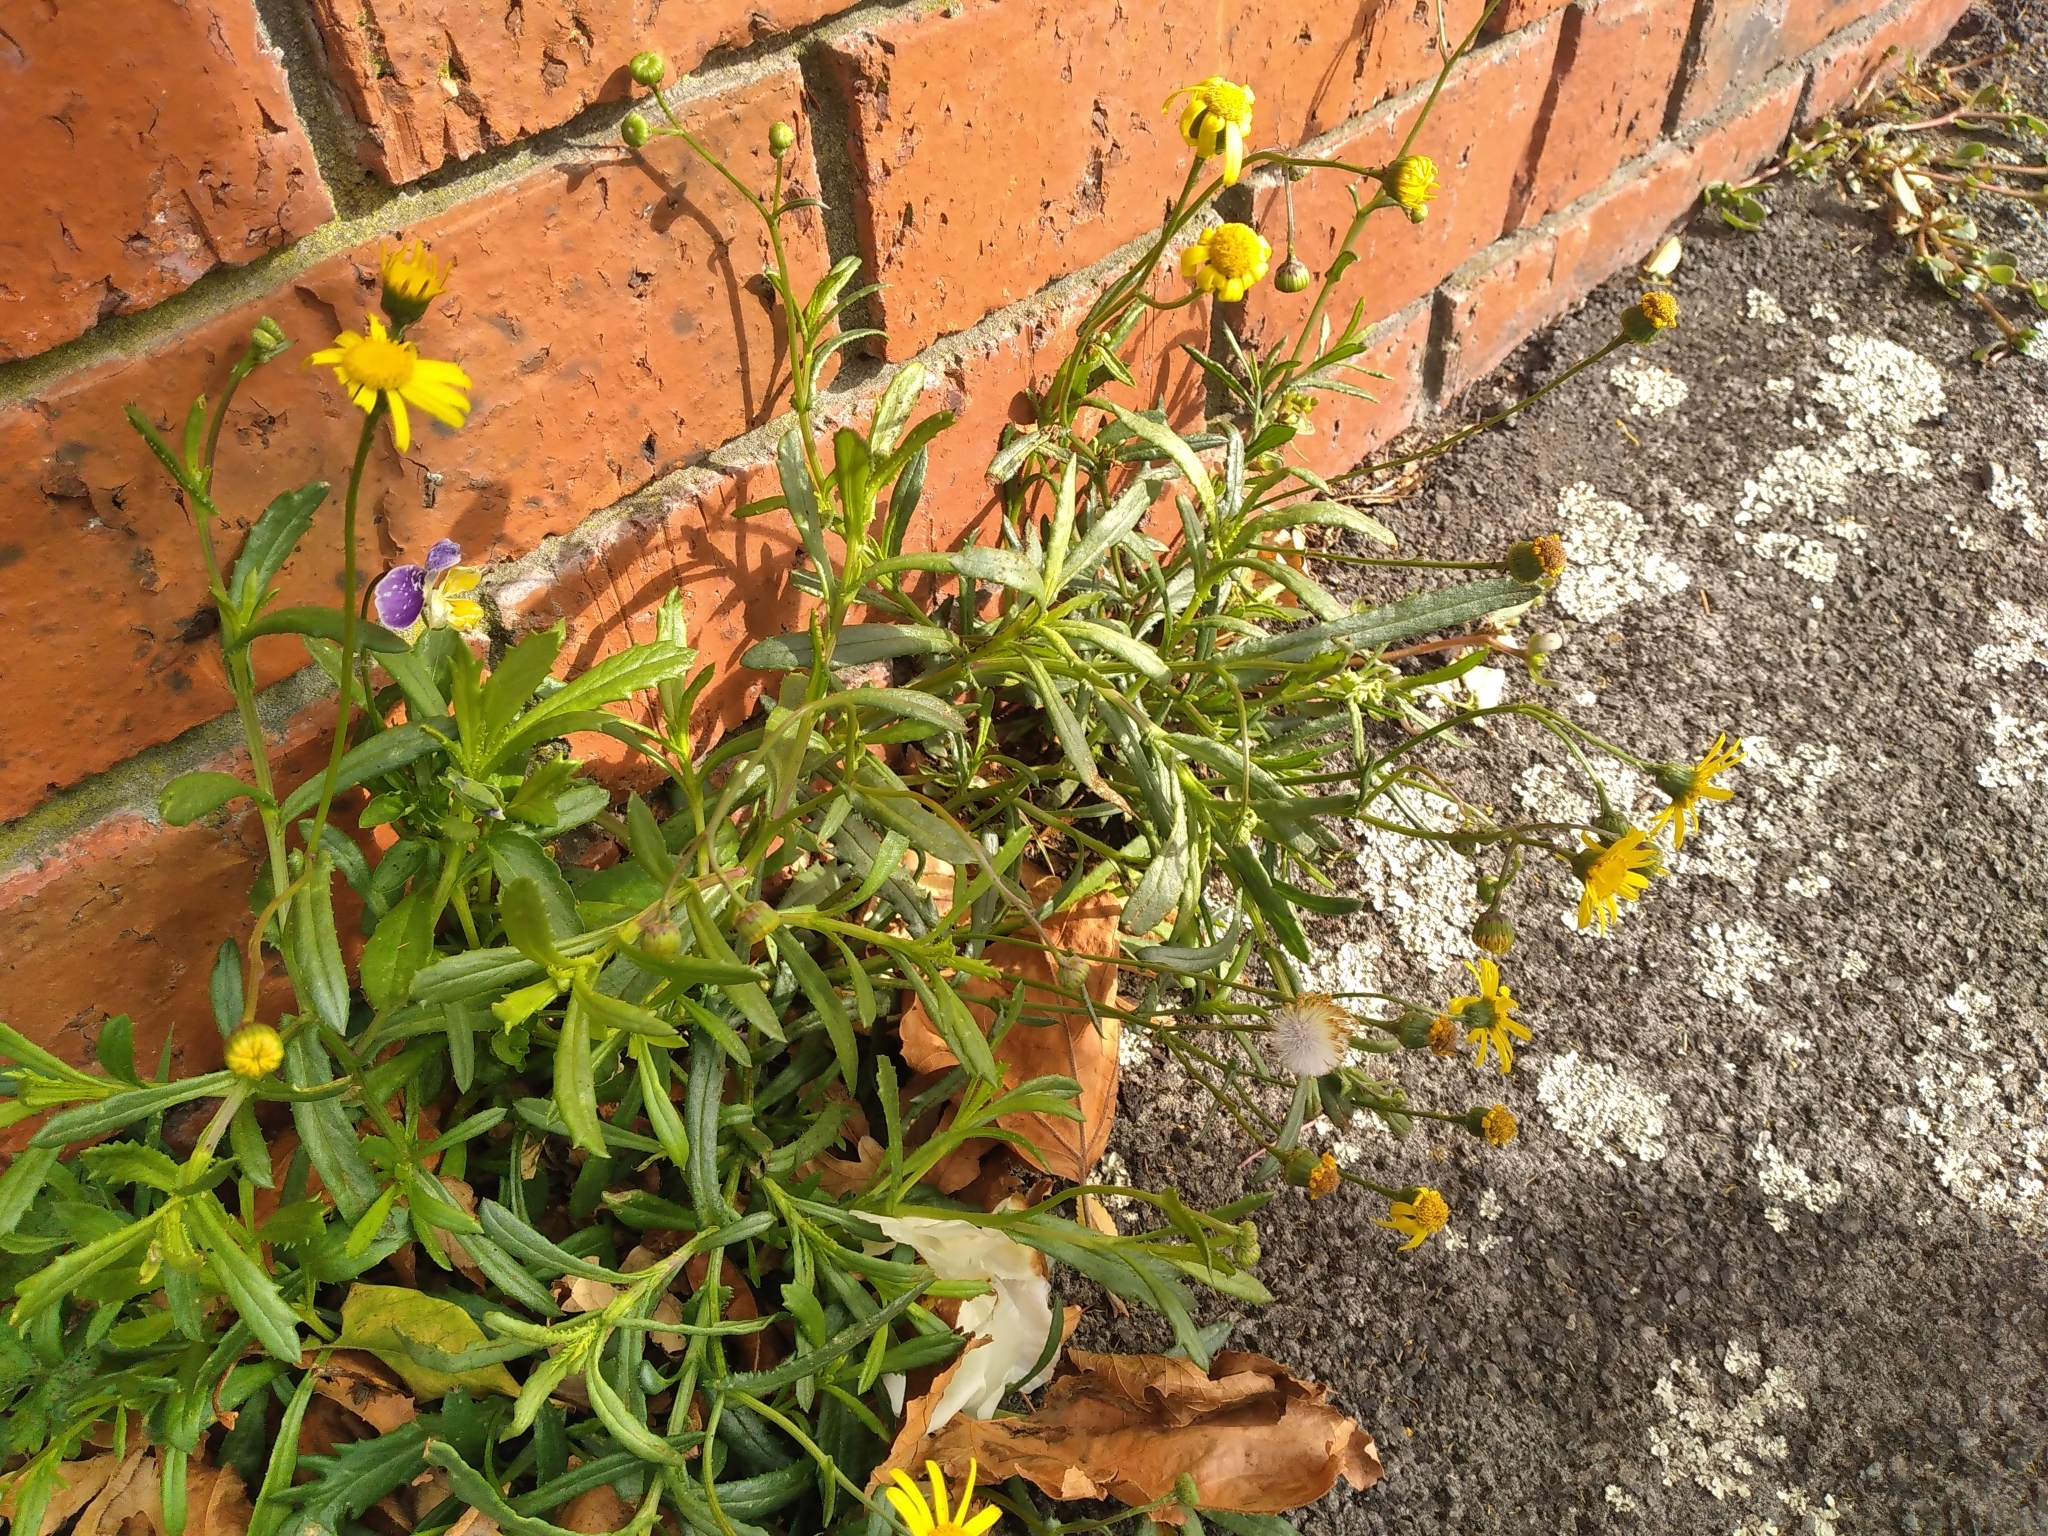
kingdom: Plantae
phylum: Tracheophyta
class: Magnoliopsida
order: Asterales
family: Asteraceae
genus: Senecio
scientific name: Senecio skirrhodon
